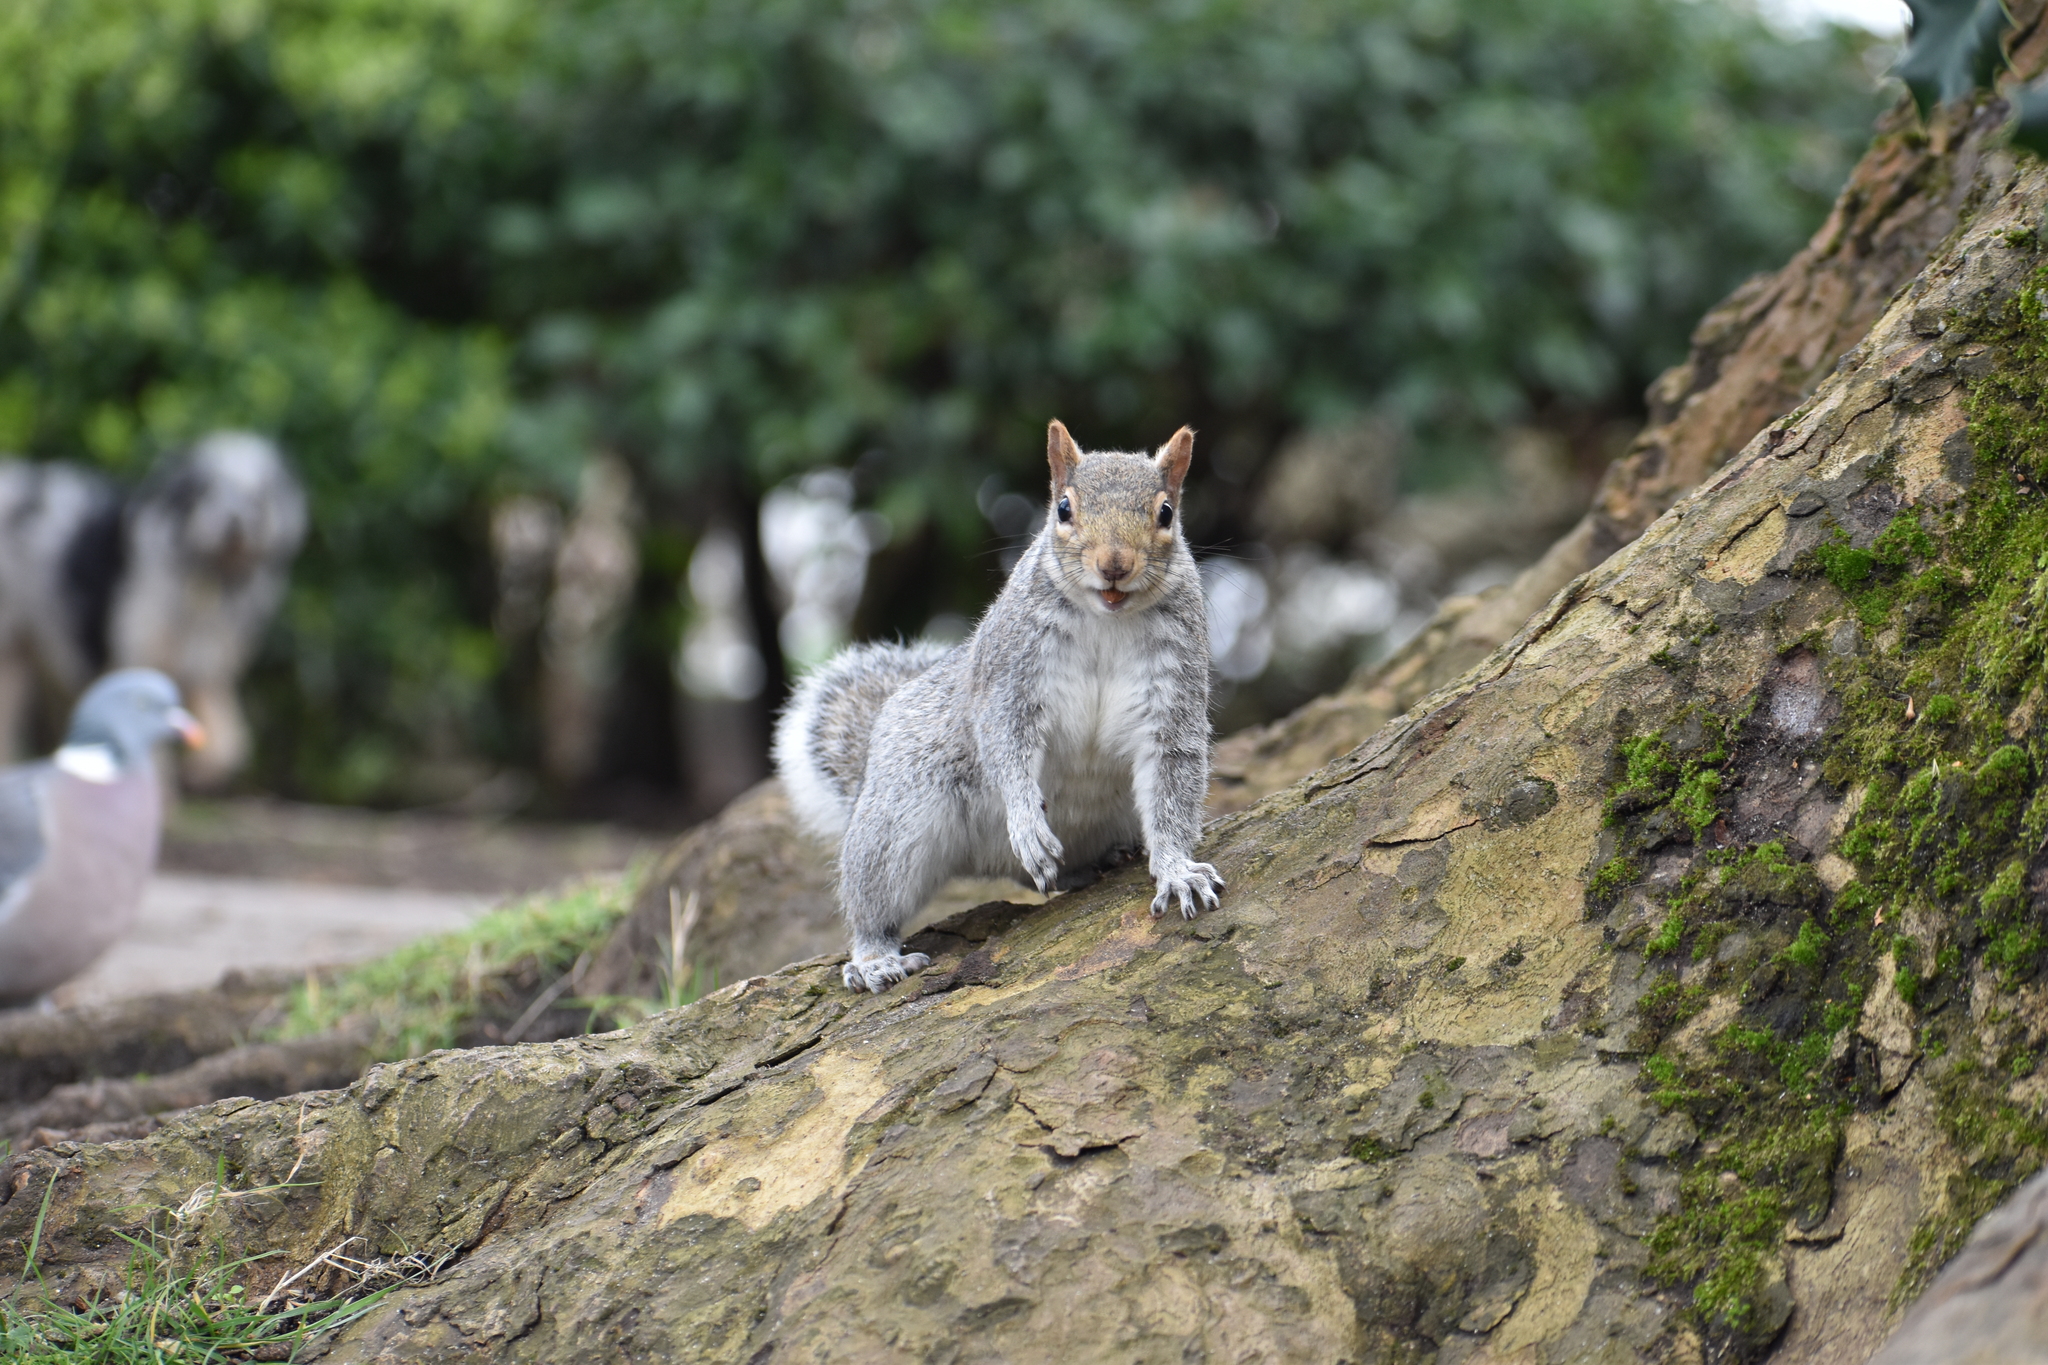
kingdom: Animalia
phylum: Chordata
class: Mammalia
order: Rodentia
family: Sciuridae
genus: Sciurus
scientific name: Sciurus carolinensis
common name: Eastern gray squirrel
